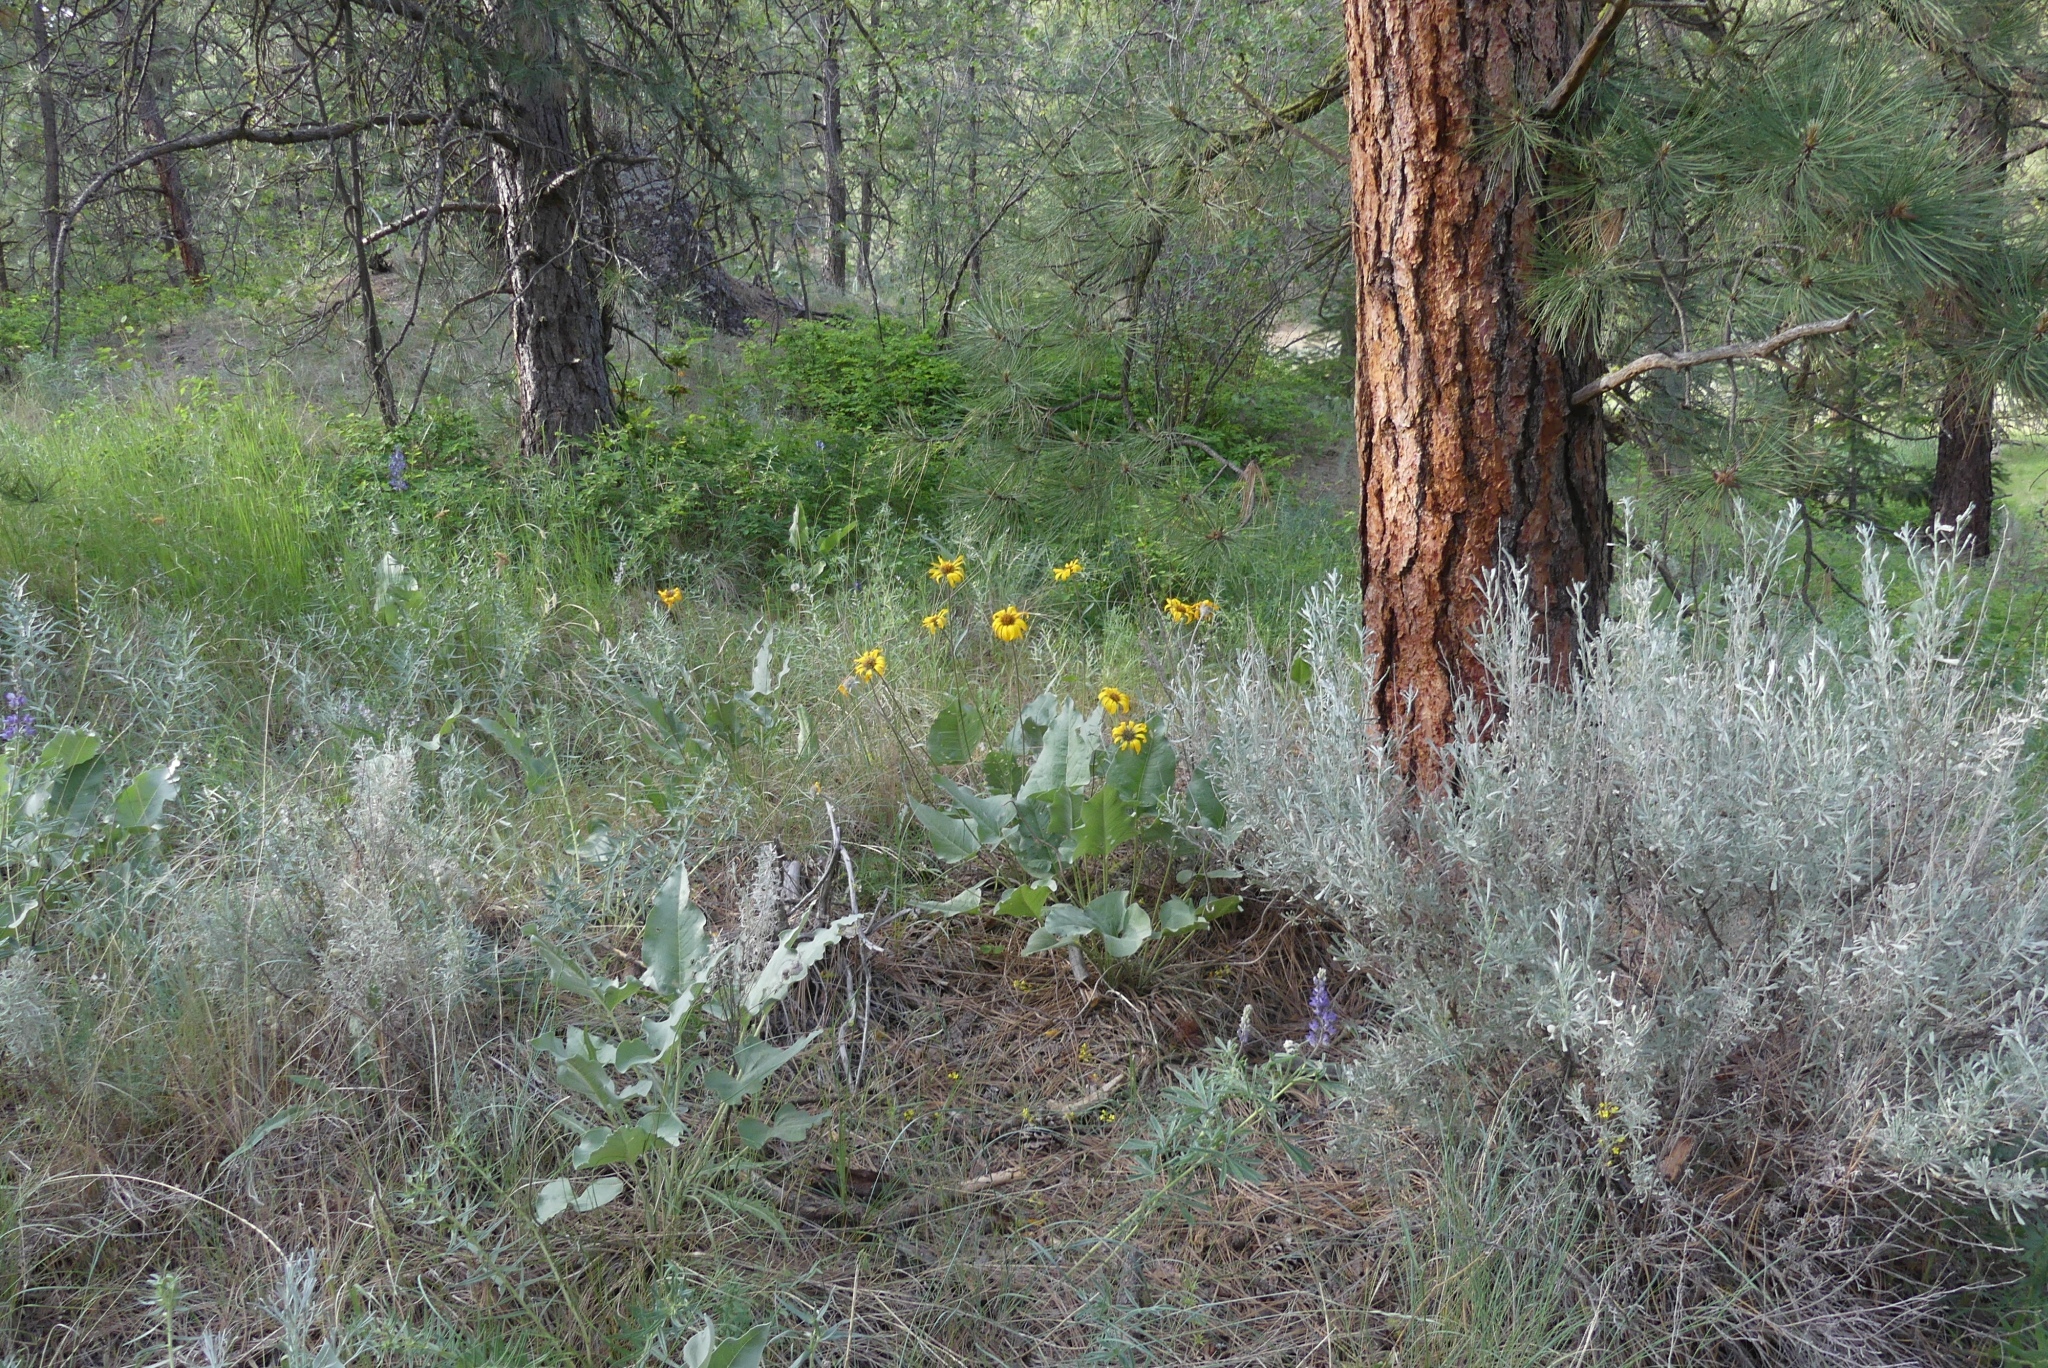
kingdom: Plantae
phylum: Tracheophyta
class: Magnoliopsida
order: Asterales
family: Asteraceae
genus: Wyethia
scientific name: Wyethia sagittata
